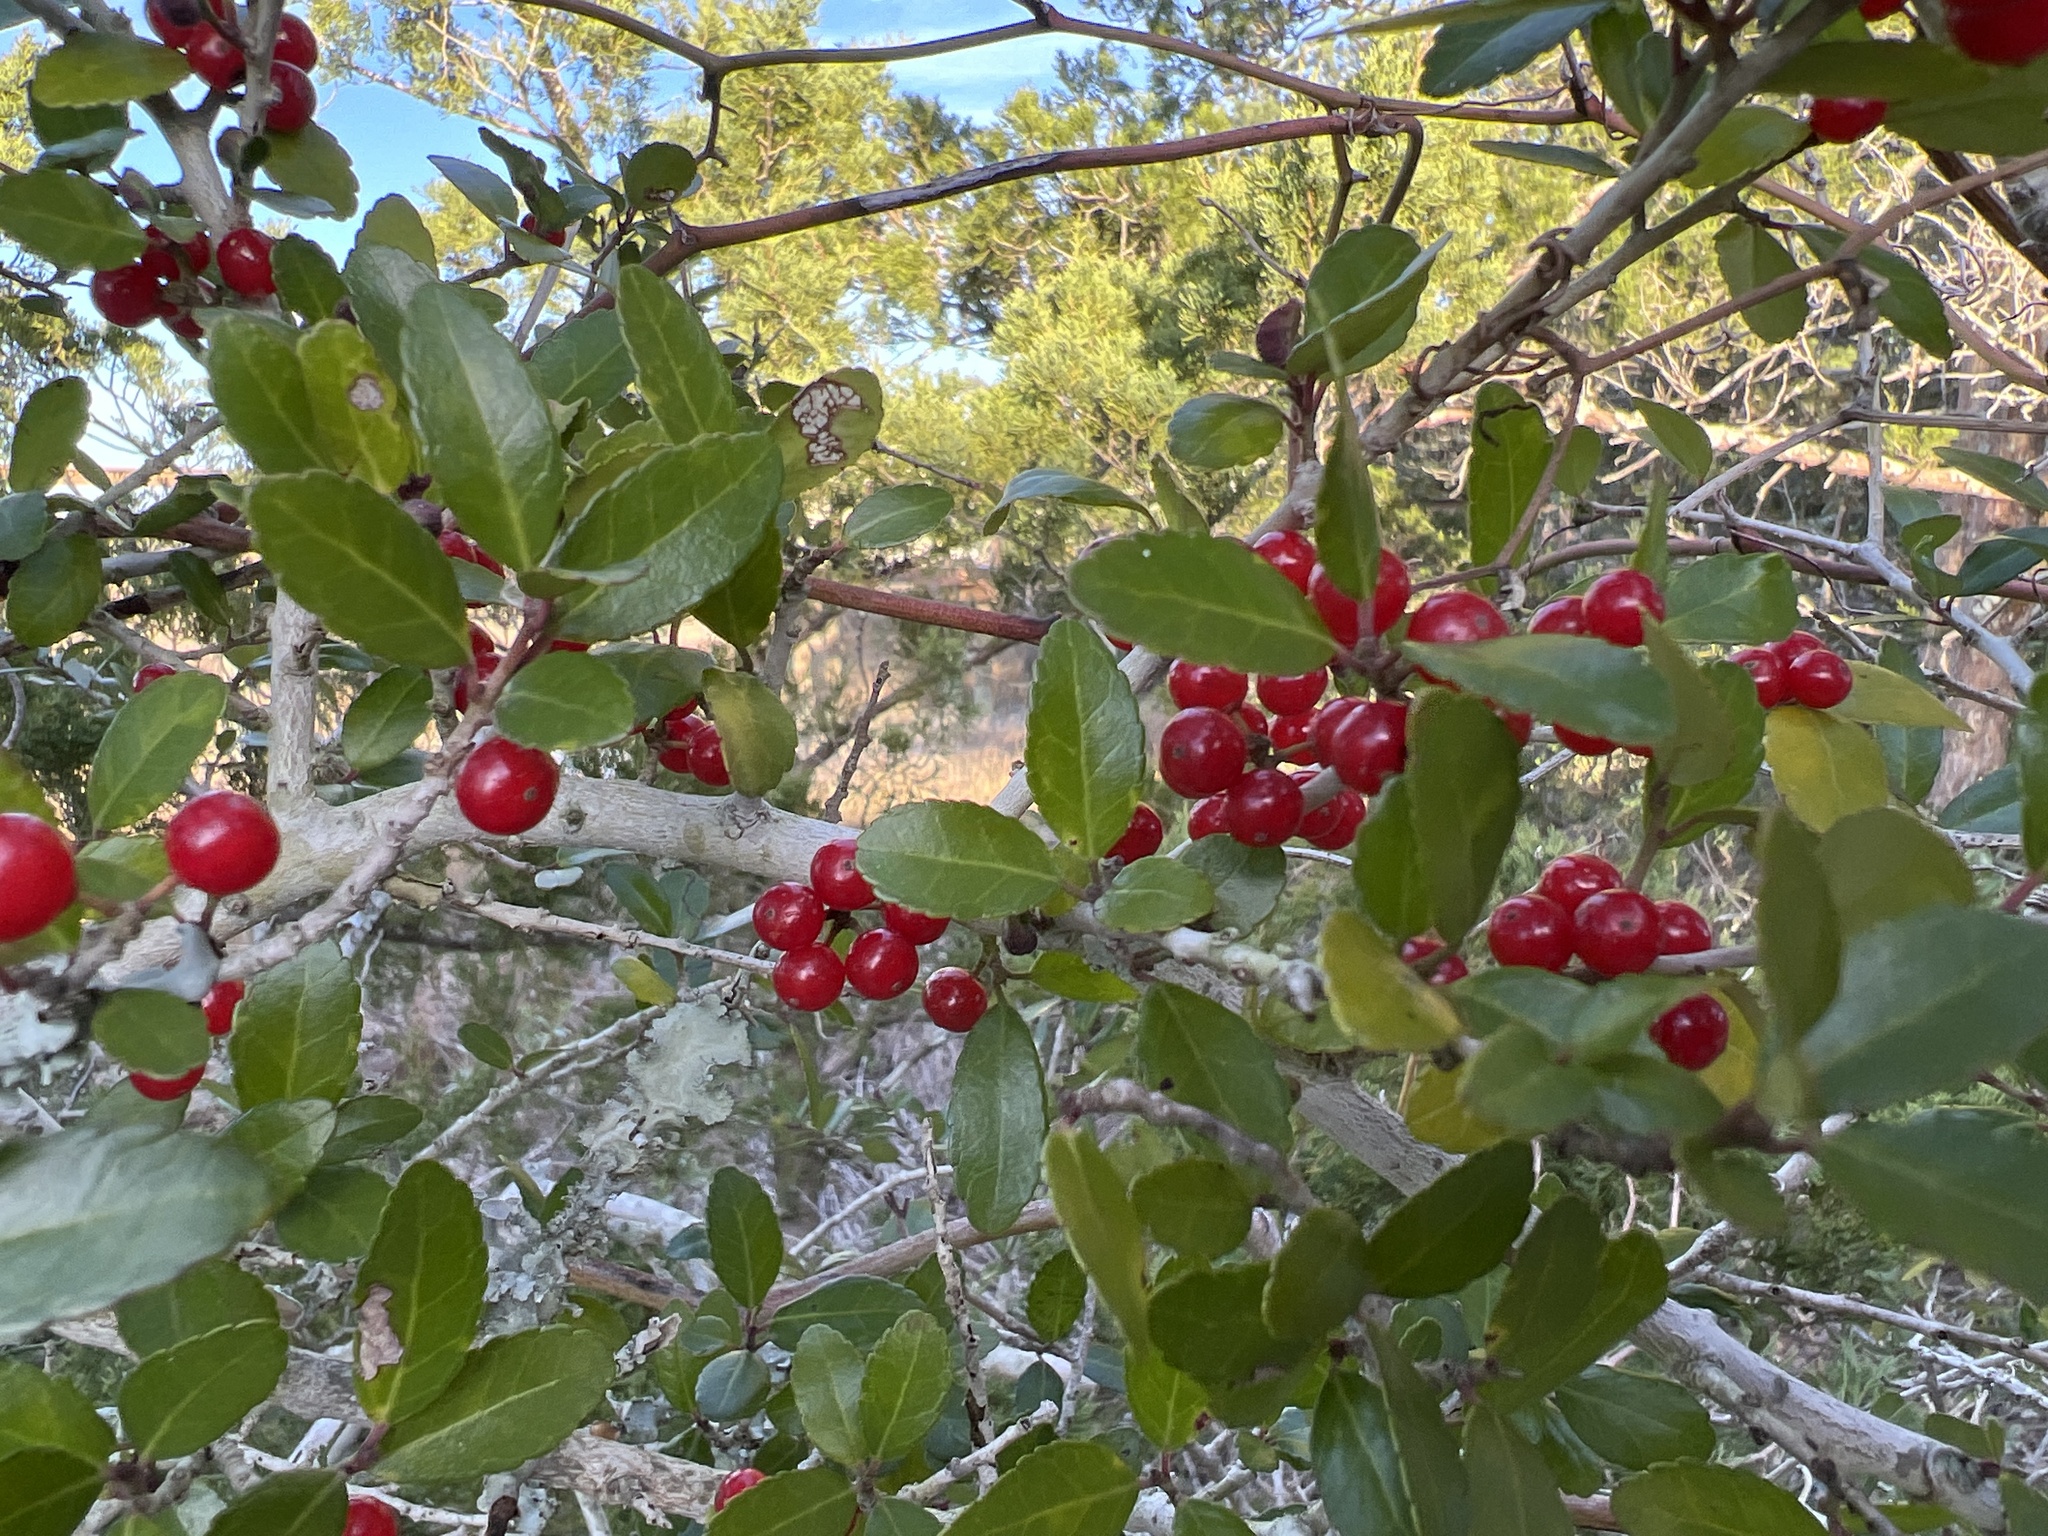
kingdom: Plantae
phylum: Tracheophyta
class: Magnoliopsida
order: Aquifoliales
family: Aquifoliaceae
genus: Ilex
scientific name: Ilex vomitoria
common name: Yaupon holly
